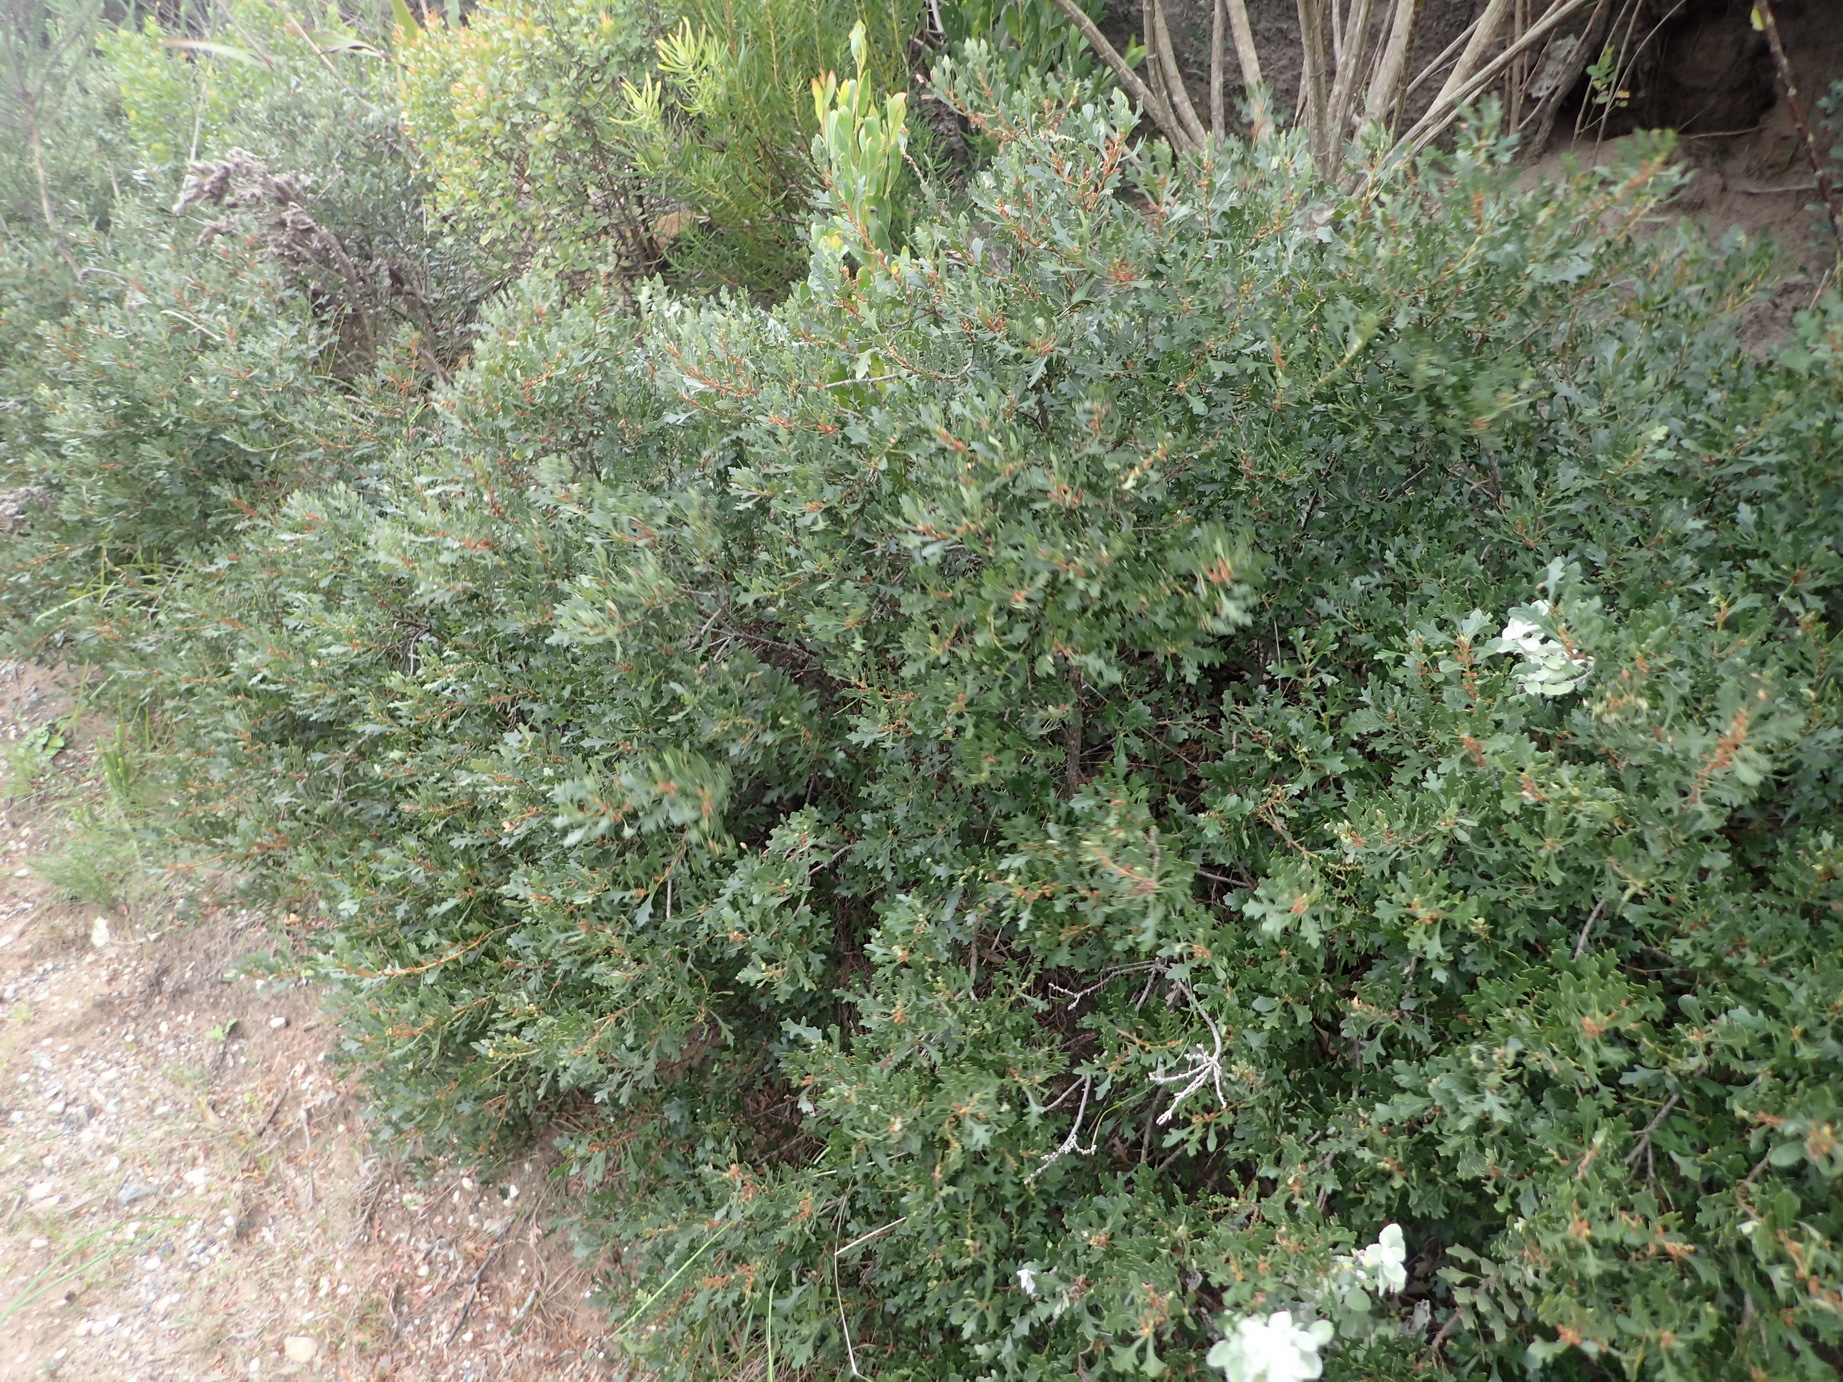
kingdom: Plantae
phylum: Tracheophyta
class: Magnoliopsida
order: Fagales
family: Myricaceae
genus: Morella
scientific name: Morella quercifolia
